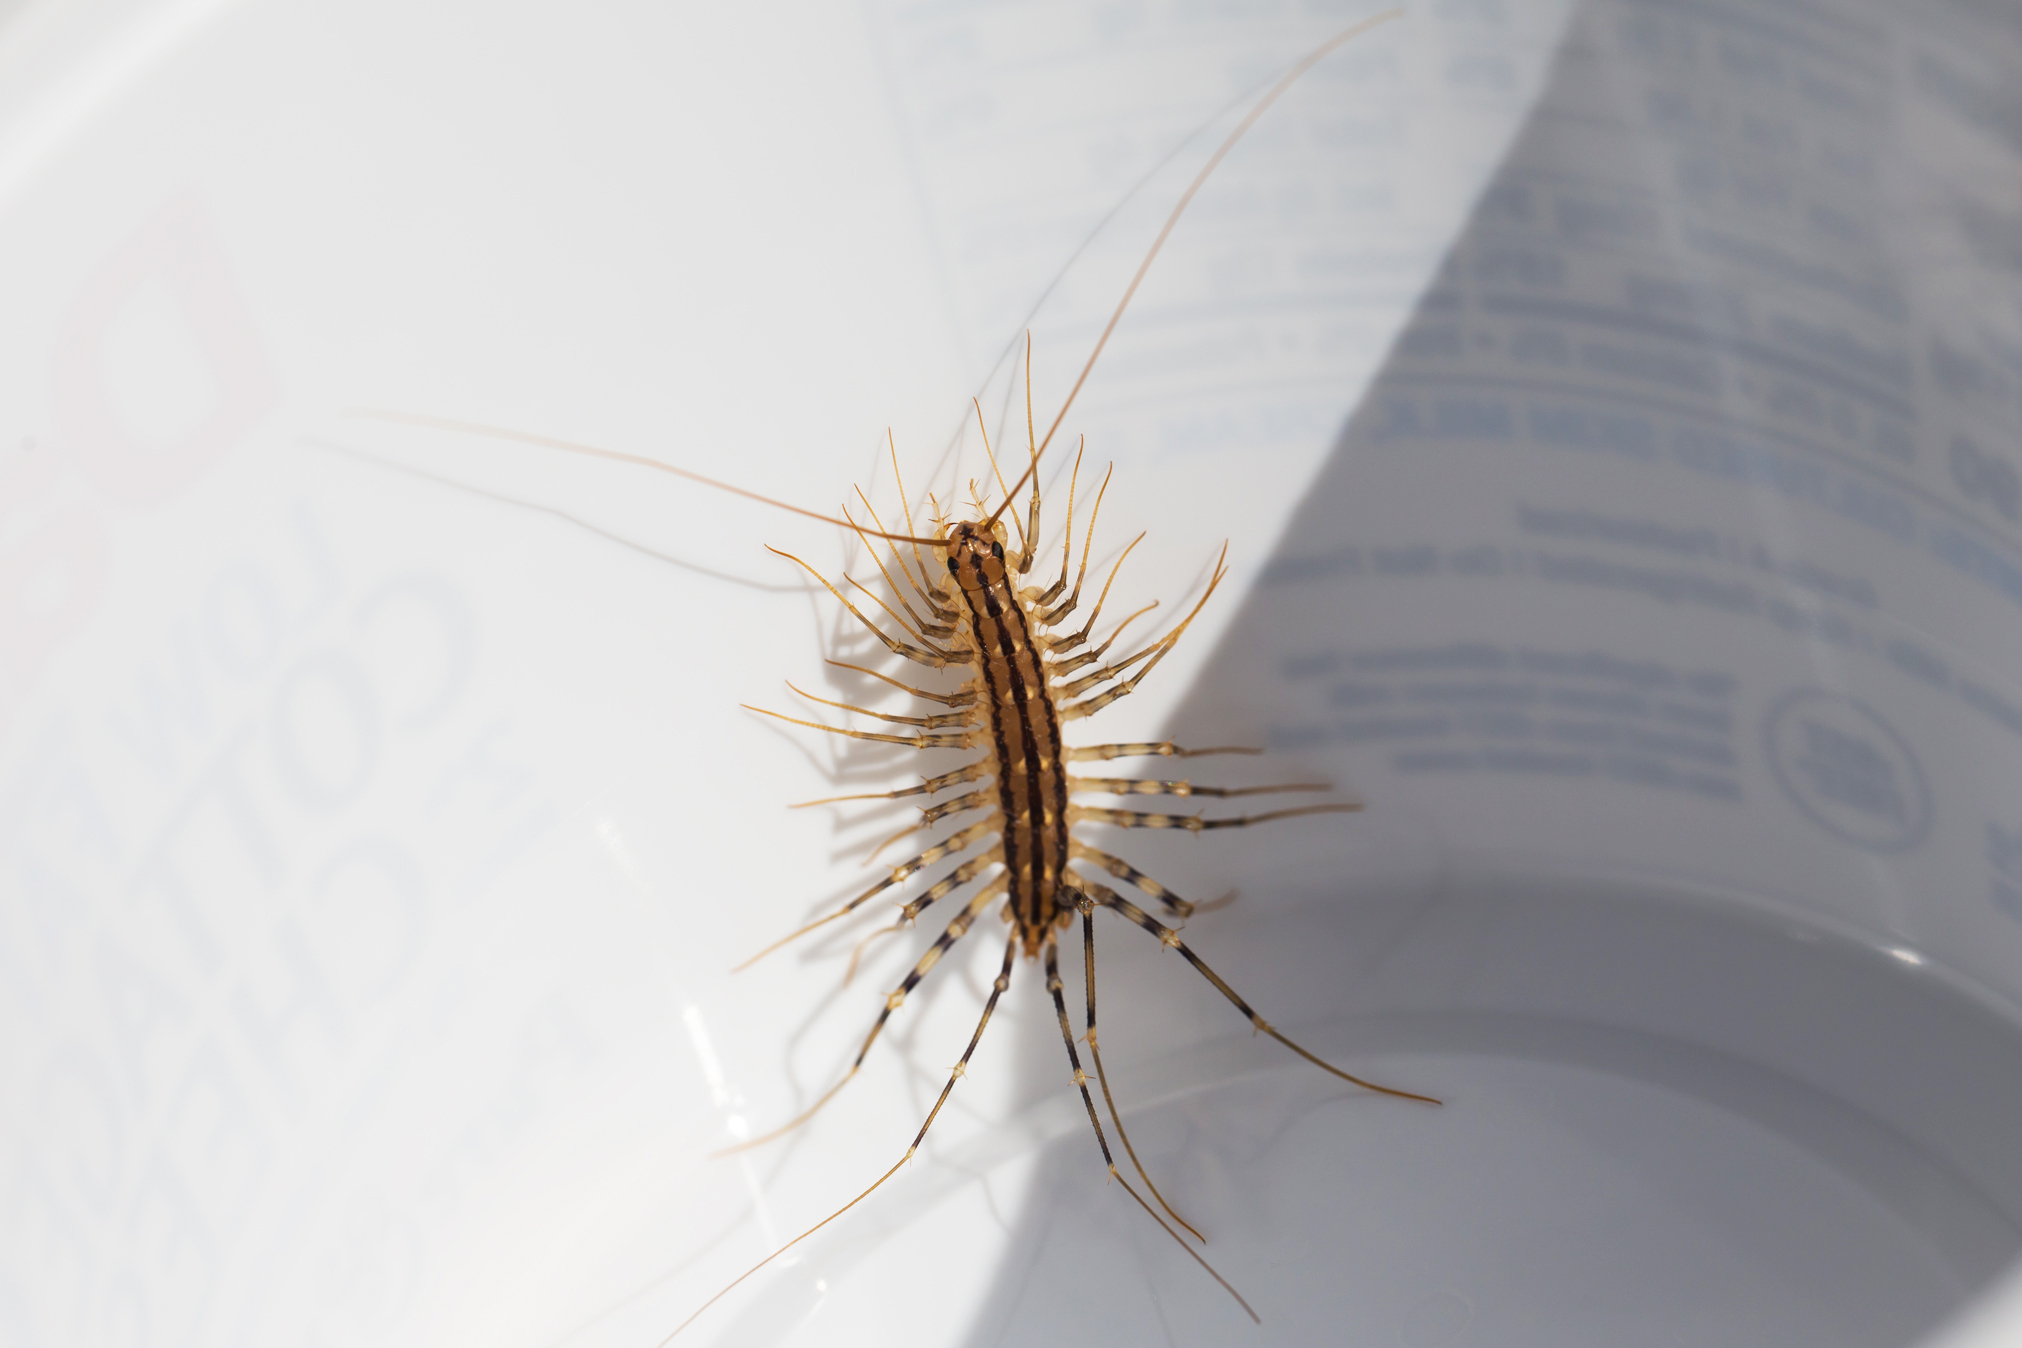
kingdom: Animalia
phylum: Arthropoda
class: Chilopoda
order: Scutigeromorpha
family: Scutigeridae
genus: Scutigera
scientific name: Scutigera coleoptrata
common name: House centipede
